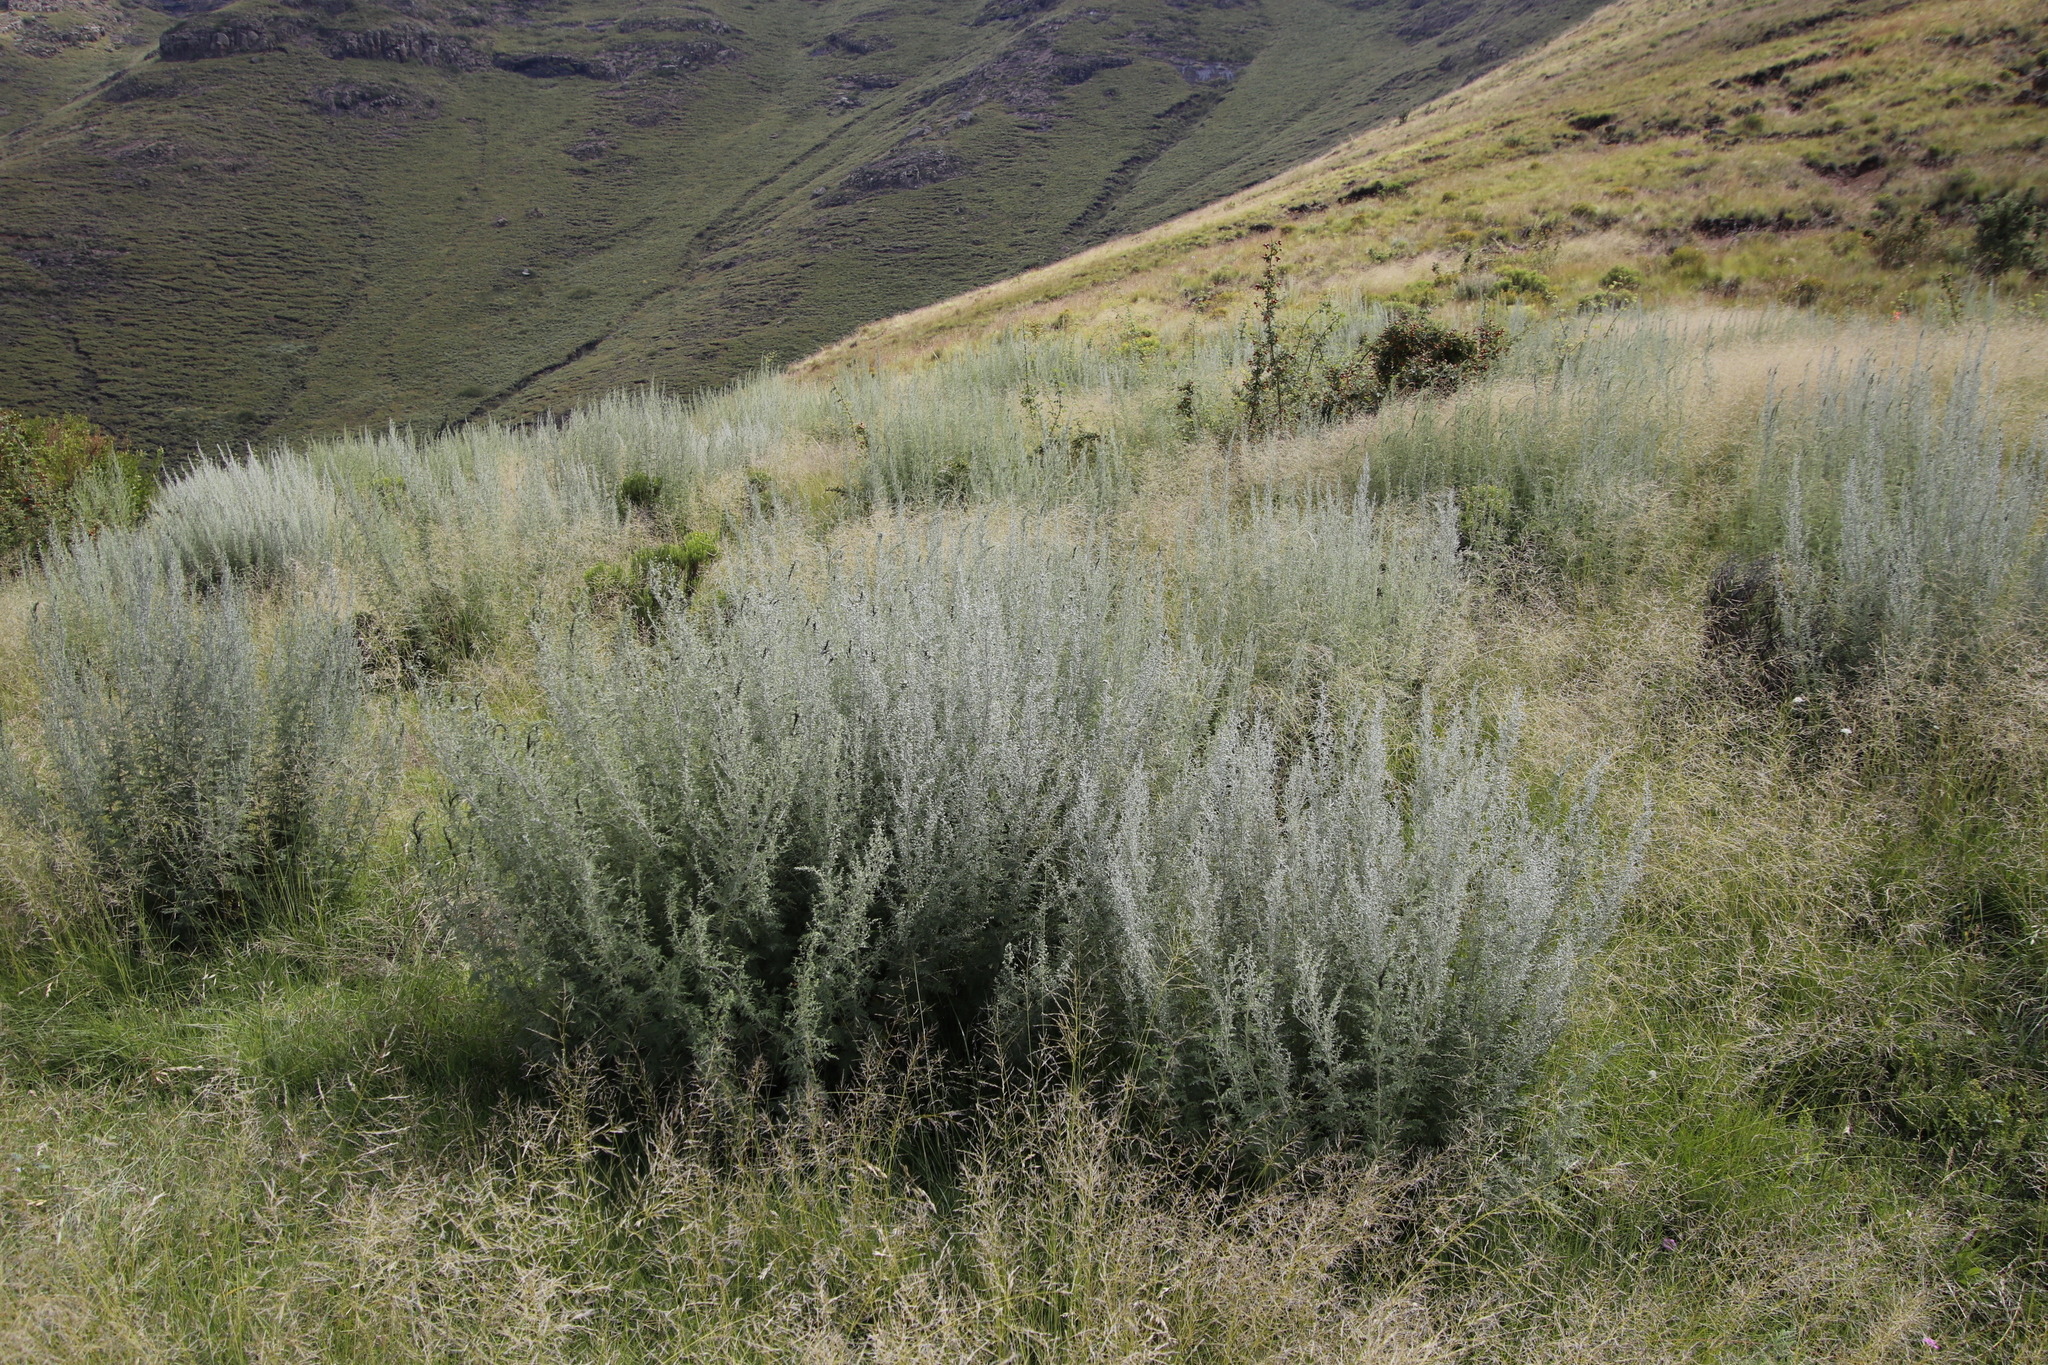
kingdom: Plantae
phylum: Tracheophyta
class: Magnoliopsida
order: Asterales
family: Asteraceae
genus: Artemisia
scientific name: Artemisia afra
